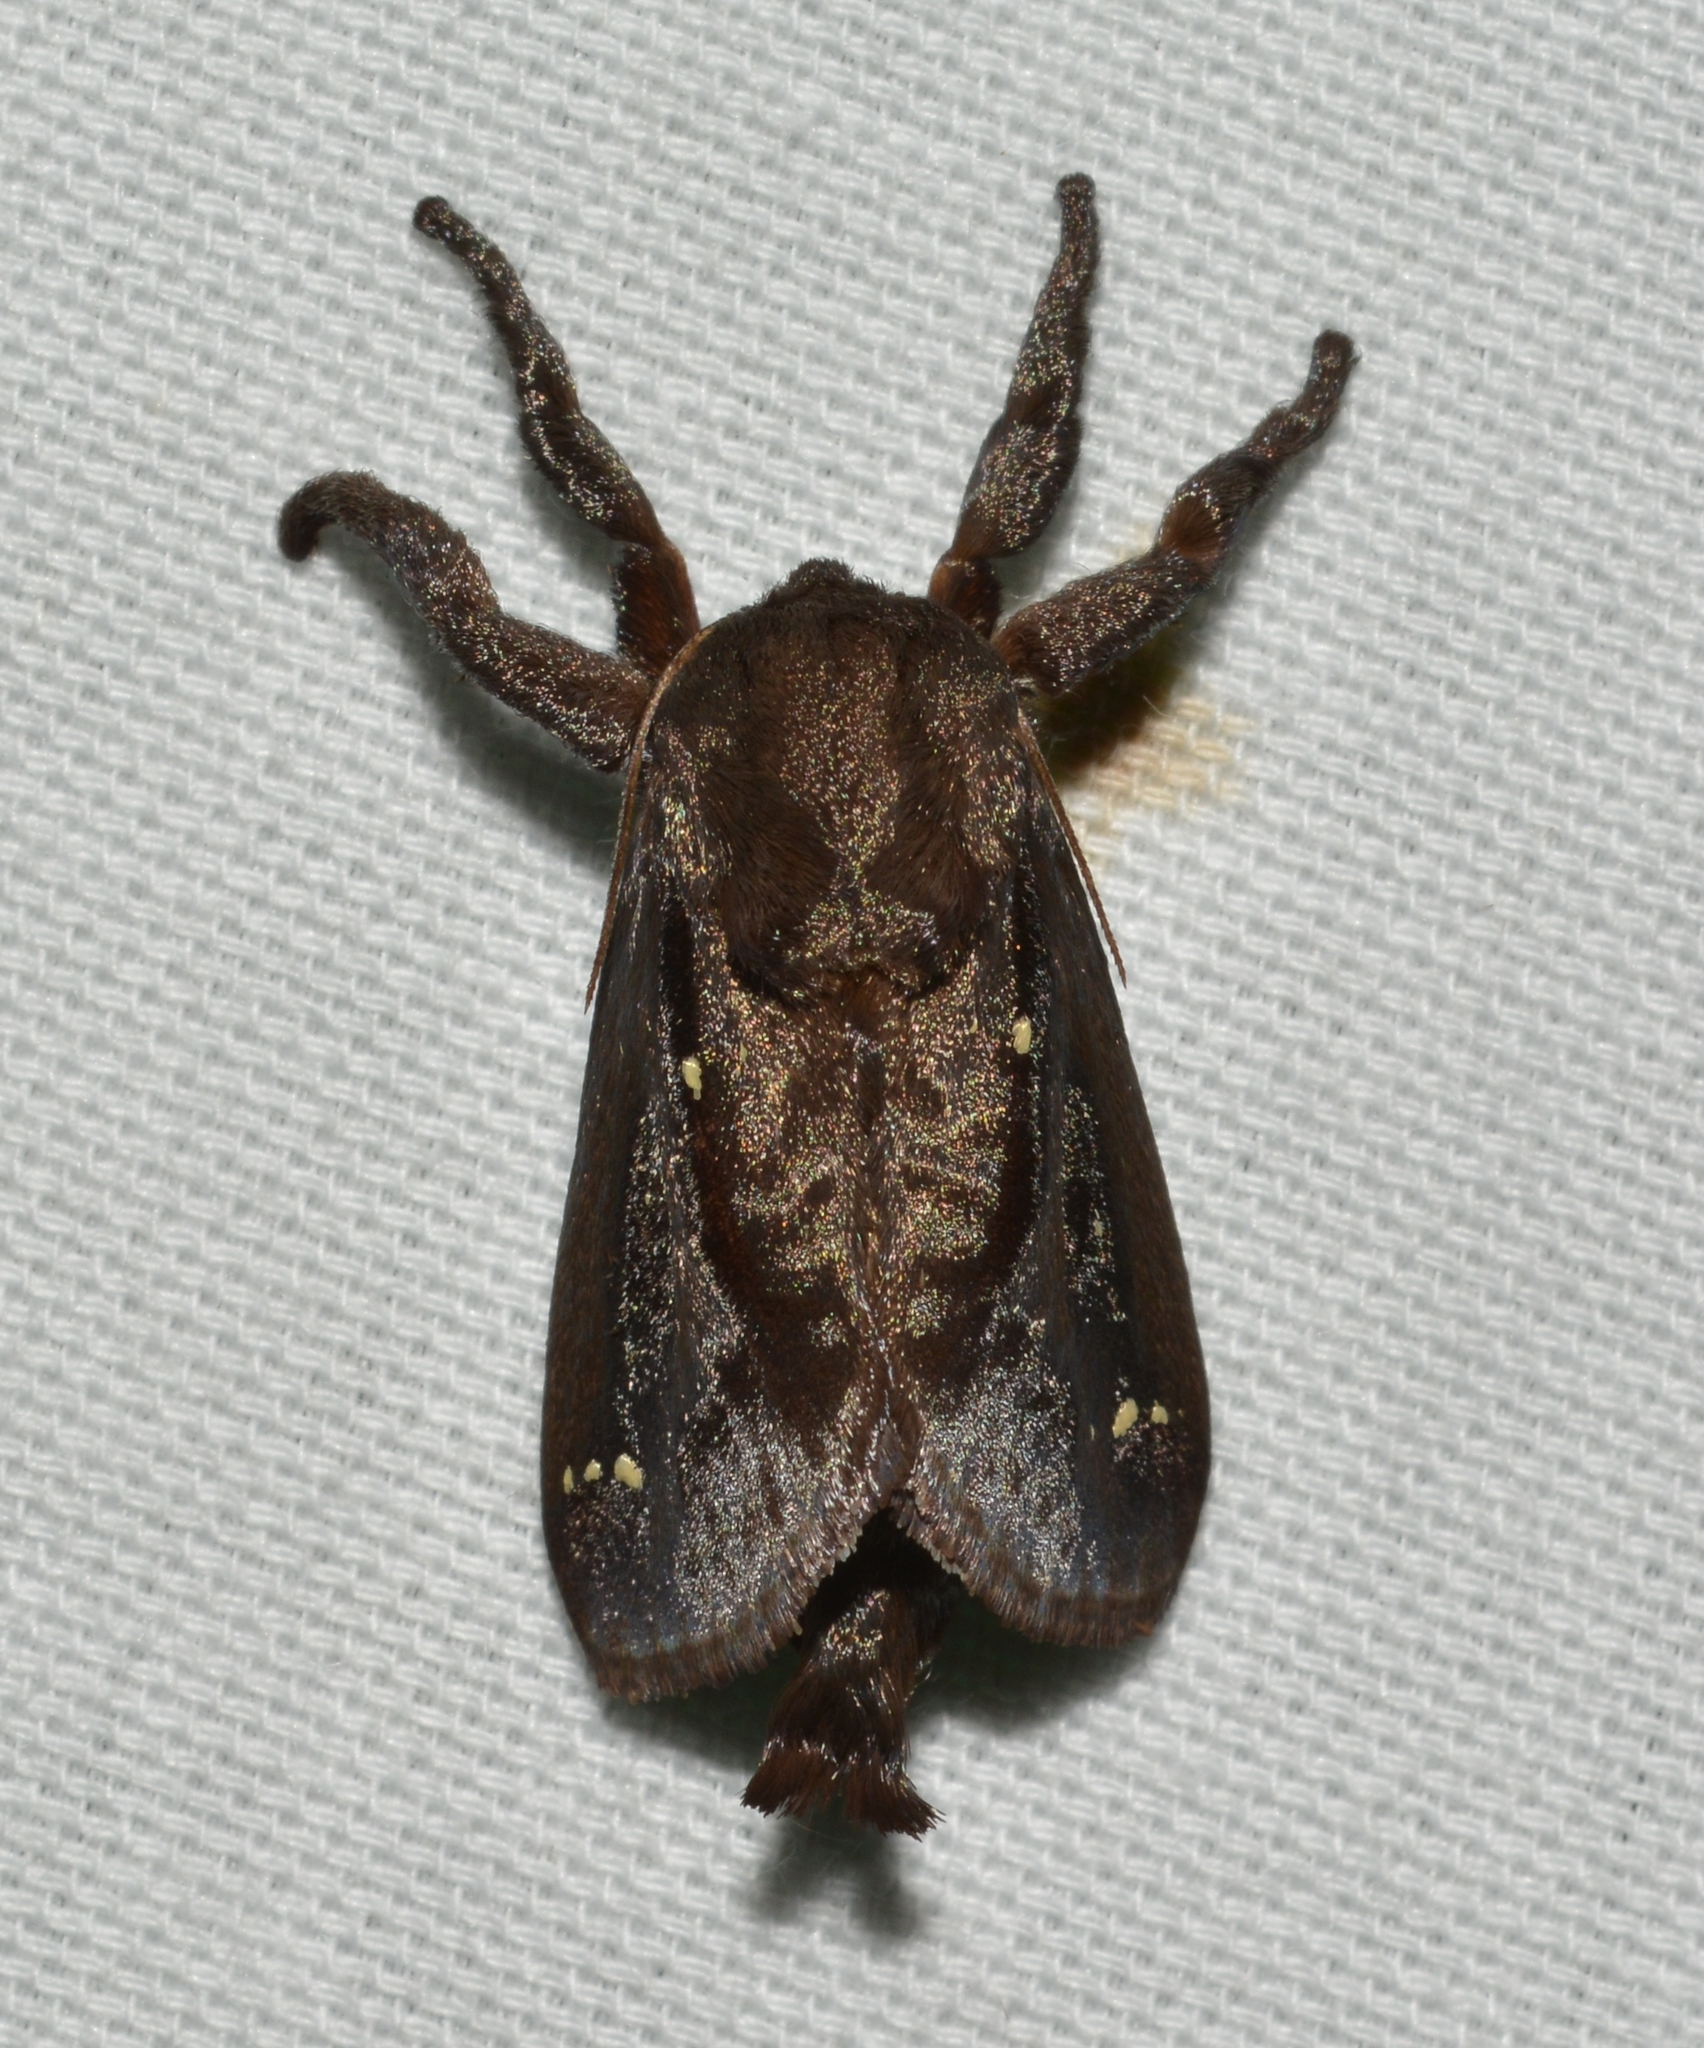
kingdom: Animalia
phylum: Arthropoda
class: Insecta
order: Lepidoptera
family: Limacodidae
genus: Acharia
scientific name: Acharia stimulea
